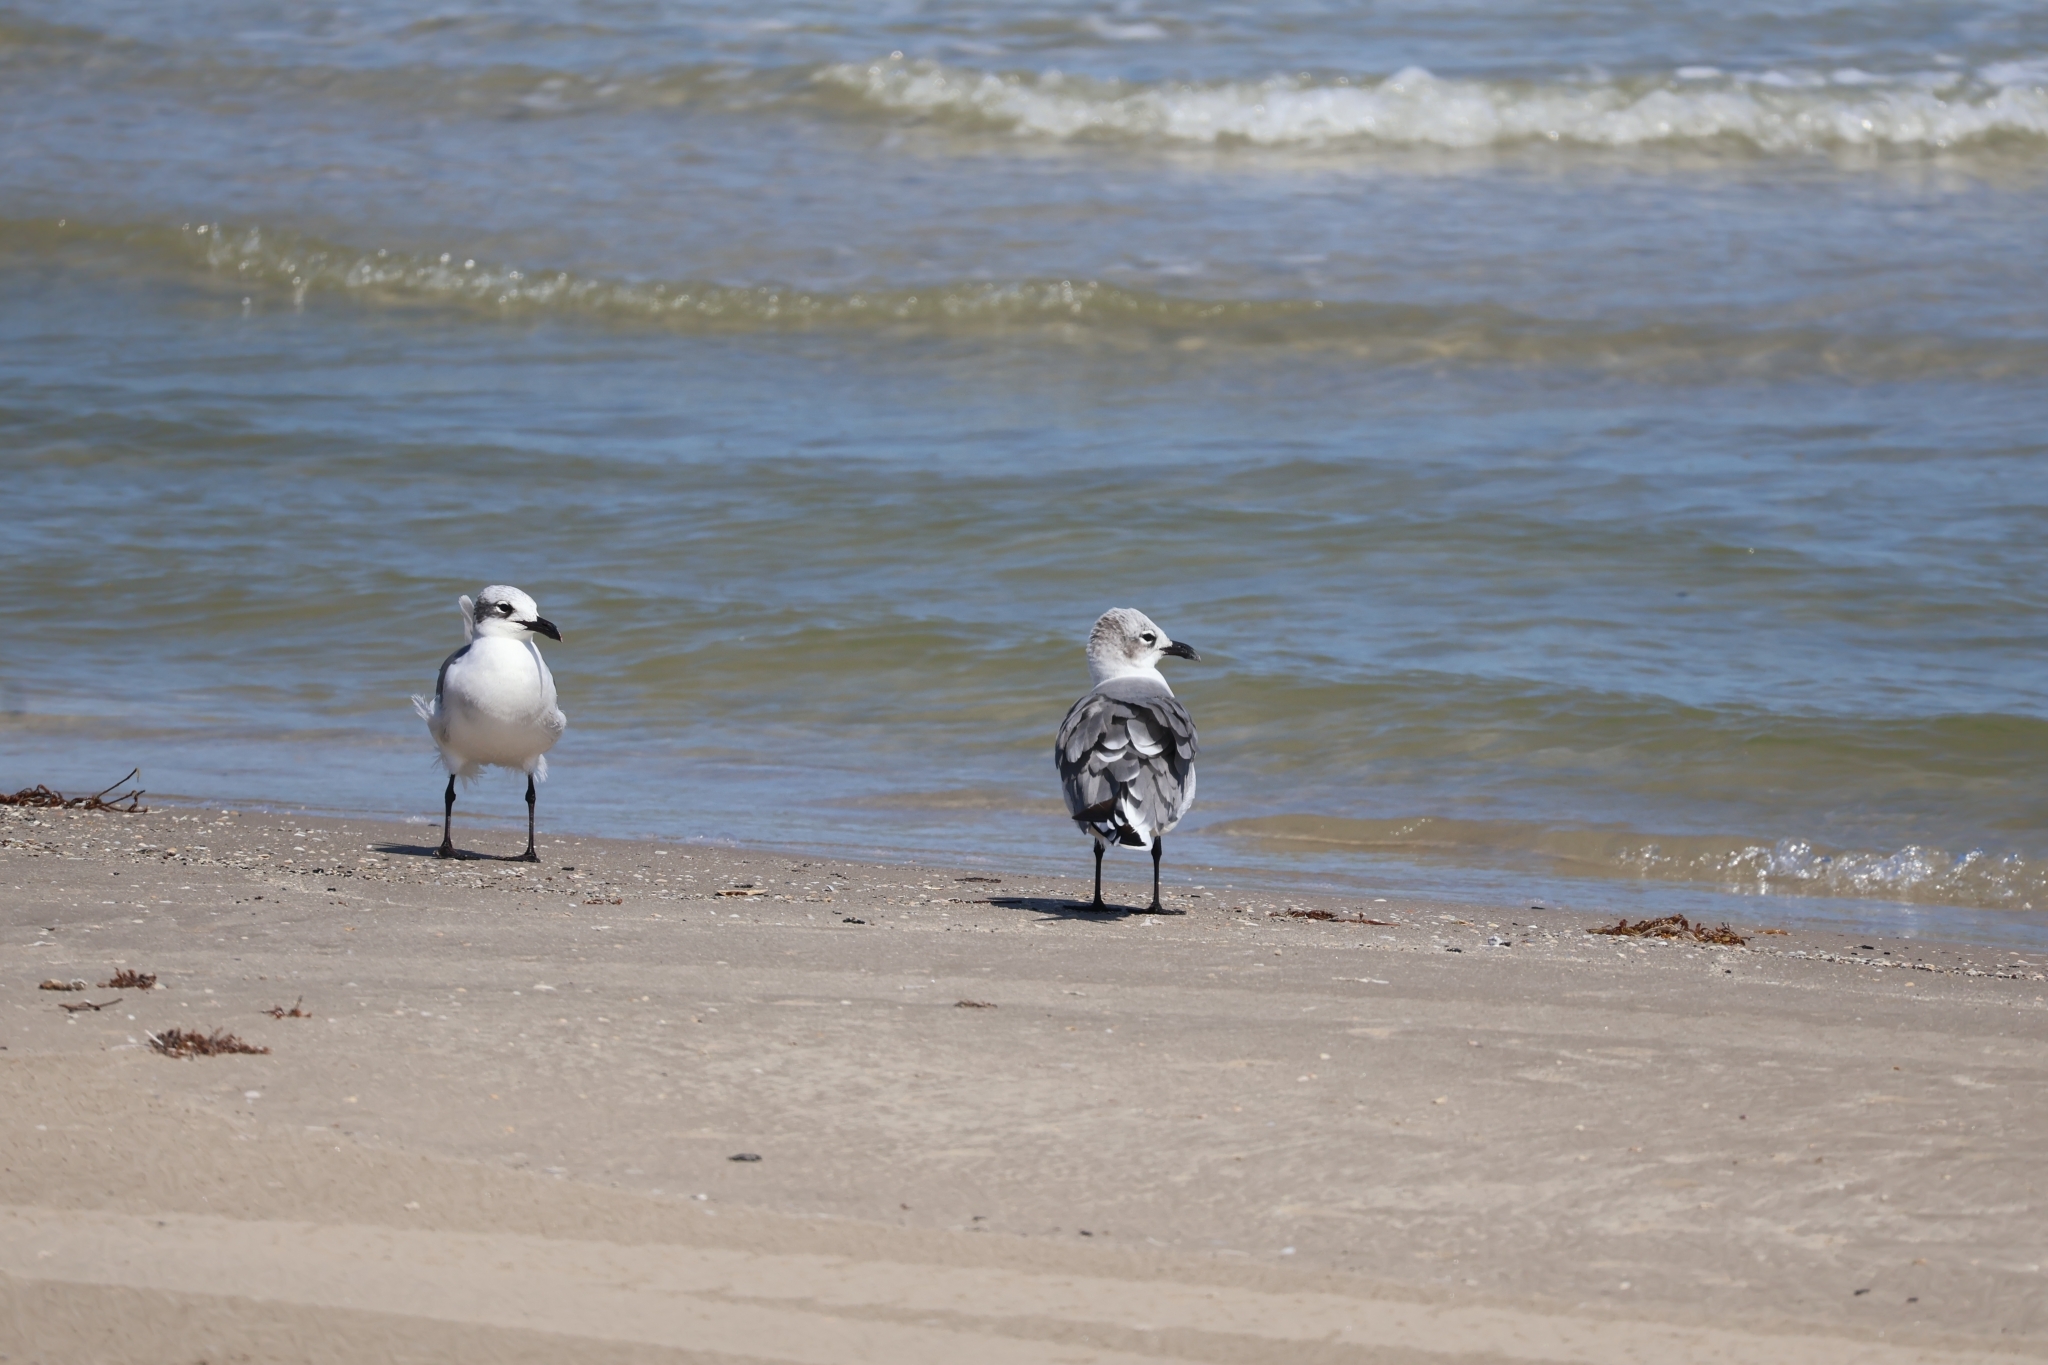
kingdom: Animalia
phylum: Chordata
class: Aves
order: Charadriiformes
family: Laridae
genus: Leucophaeus
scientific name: Leucophaeus atricilla
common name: Laughing gull
